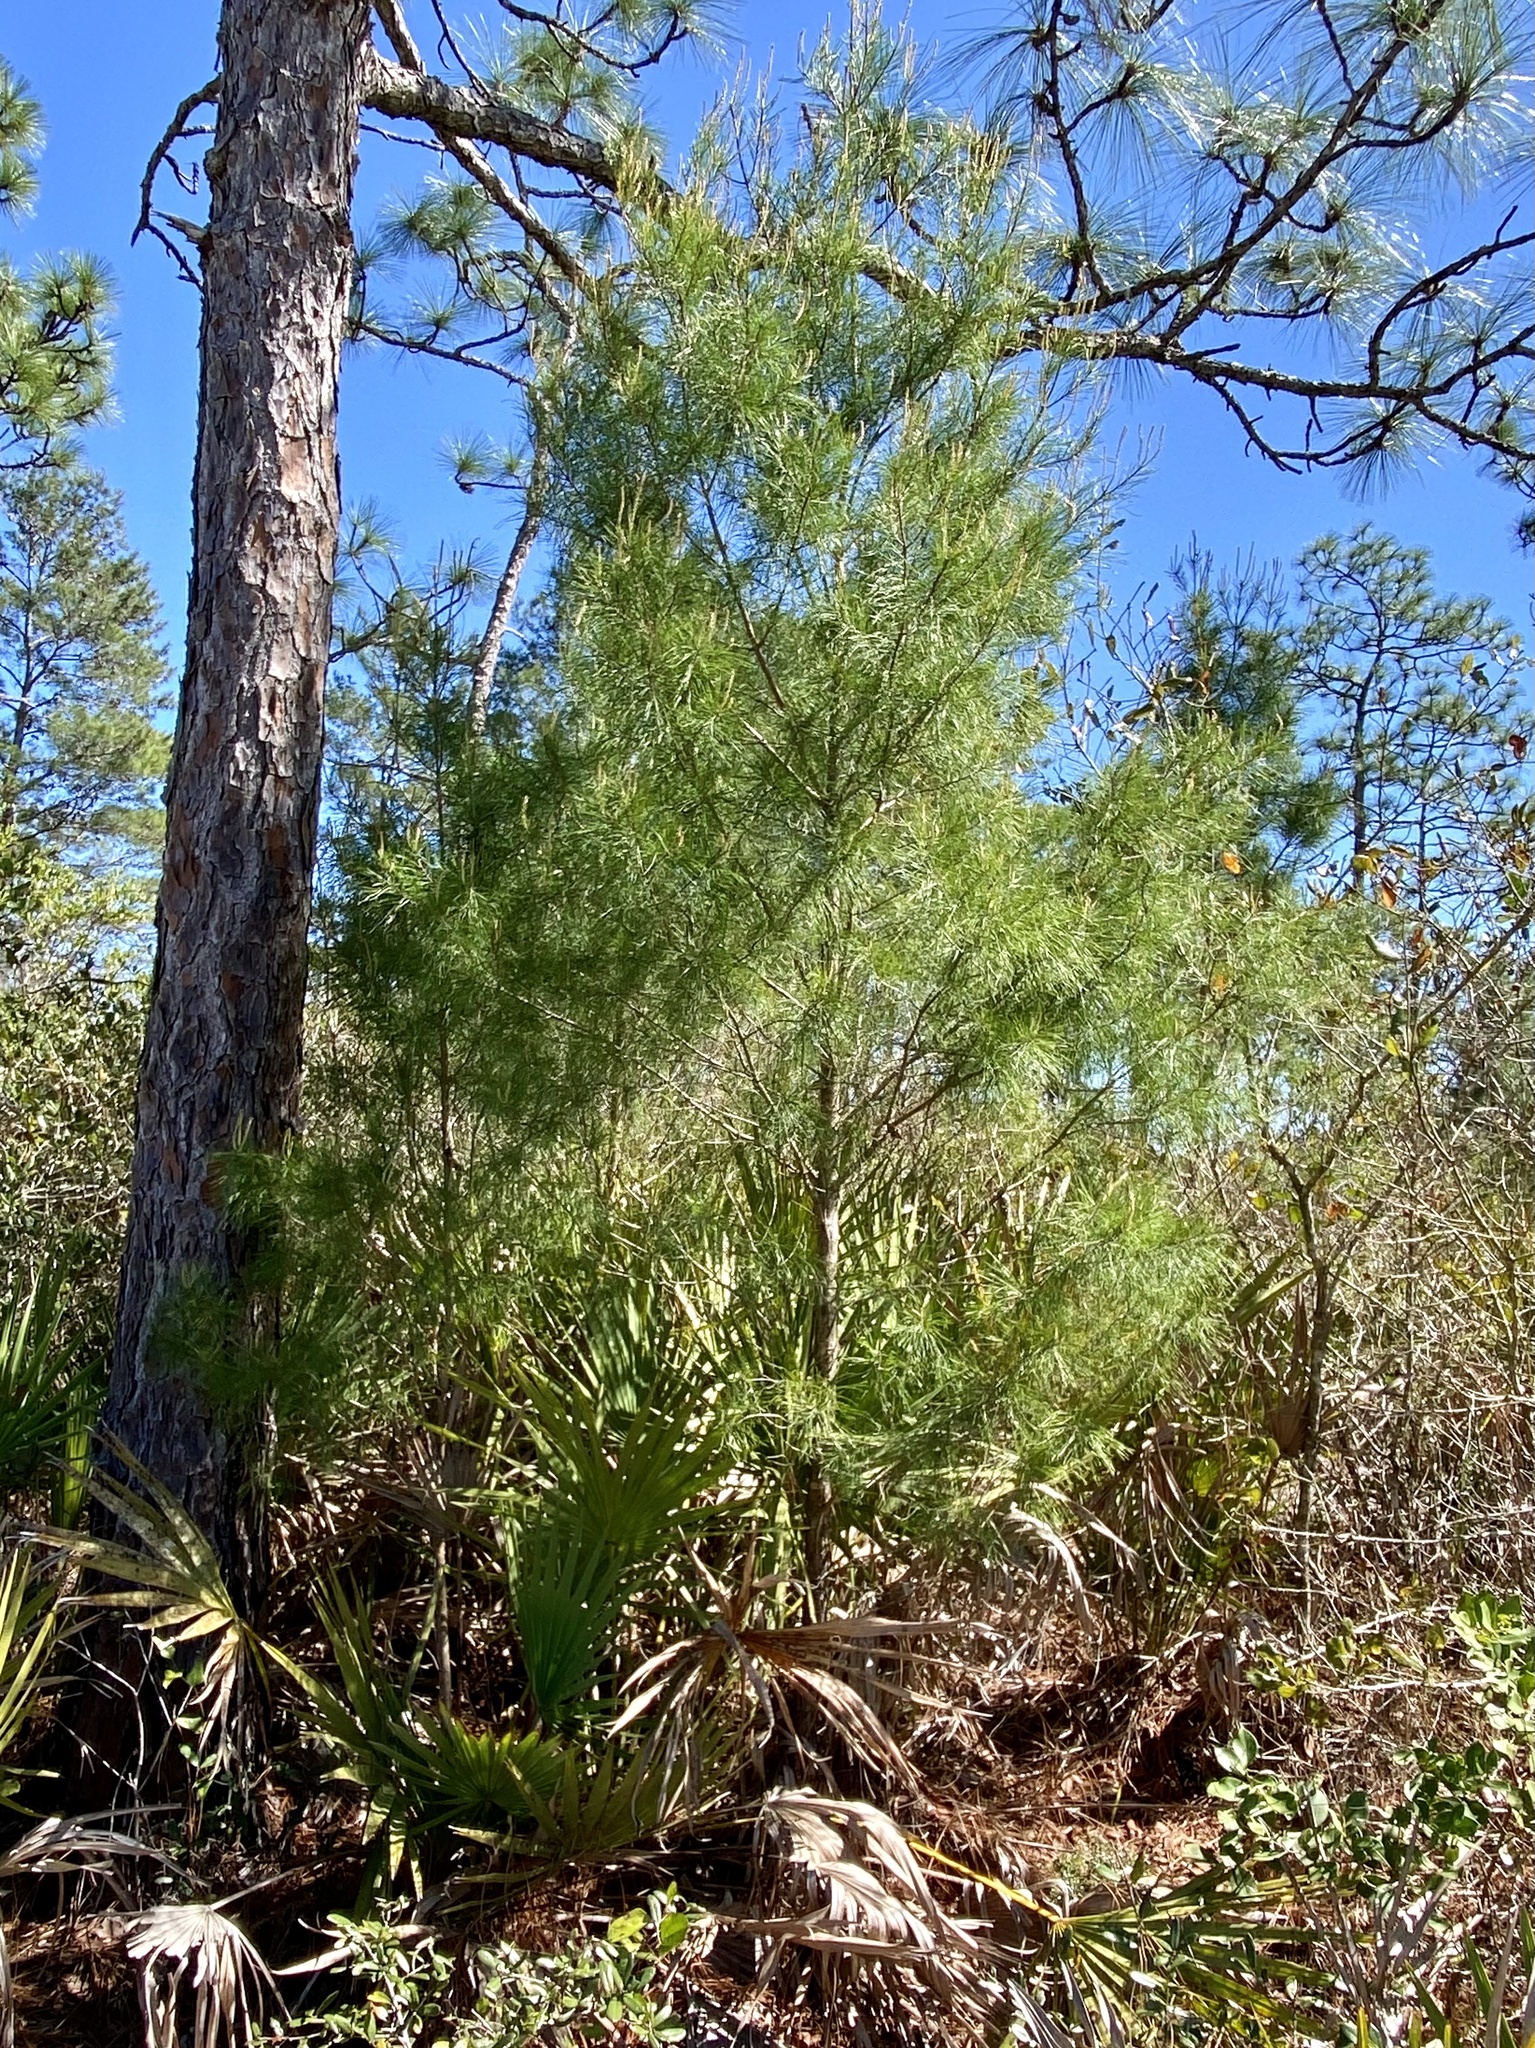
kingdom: Plantae
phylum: Tracheophyta
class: Pinopsida
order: Pinales
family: Pinaceae
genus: Pinus
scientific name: Pinus clausa
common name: Sand pine
